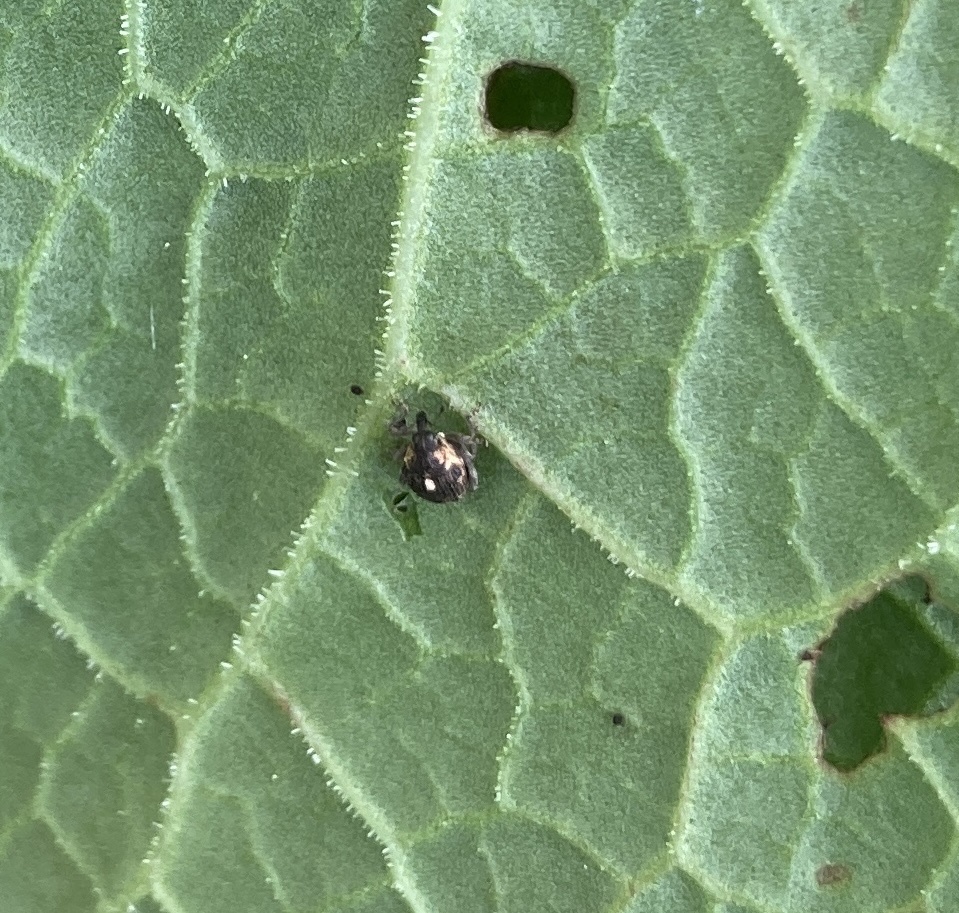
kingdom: Animalia
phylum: Arthropoda
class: Insecta
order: Coleoptera
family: Curculionidae
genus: Rhinoncus
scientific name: Rhinoncus australis
